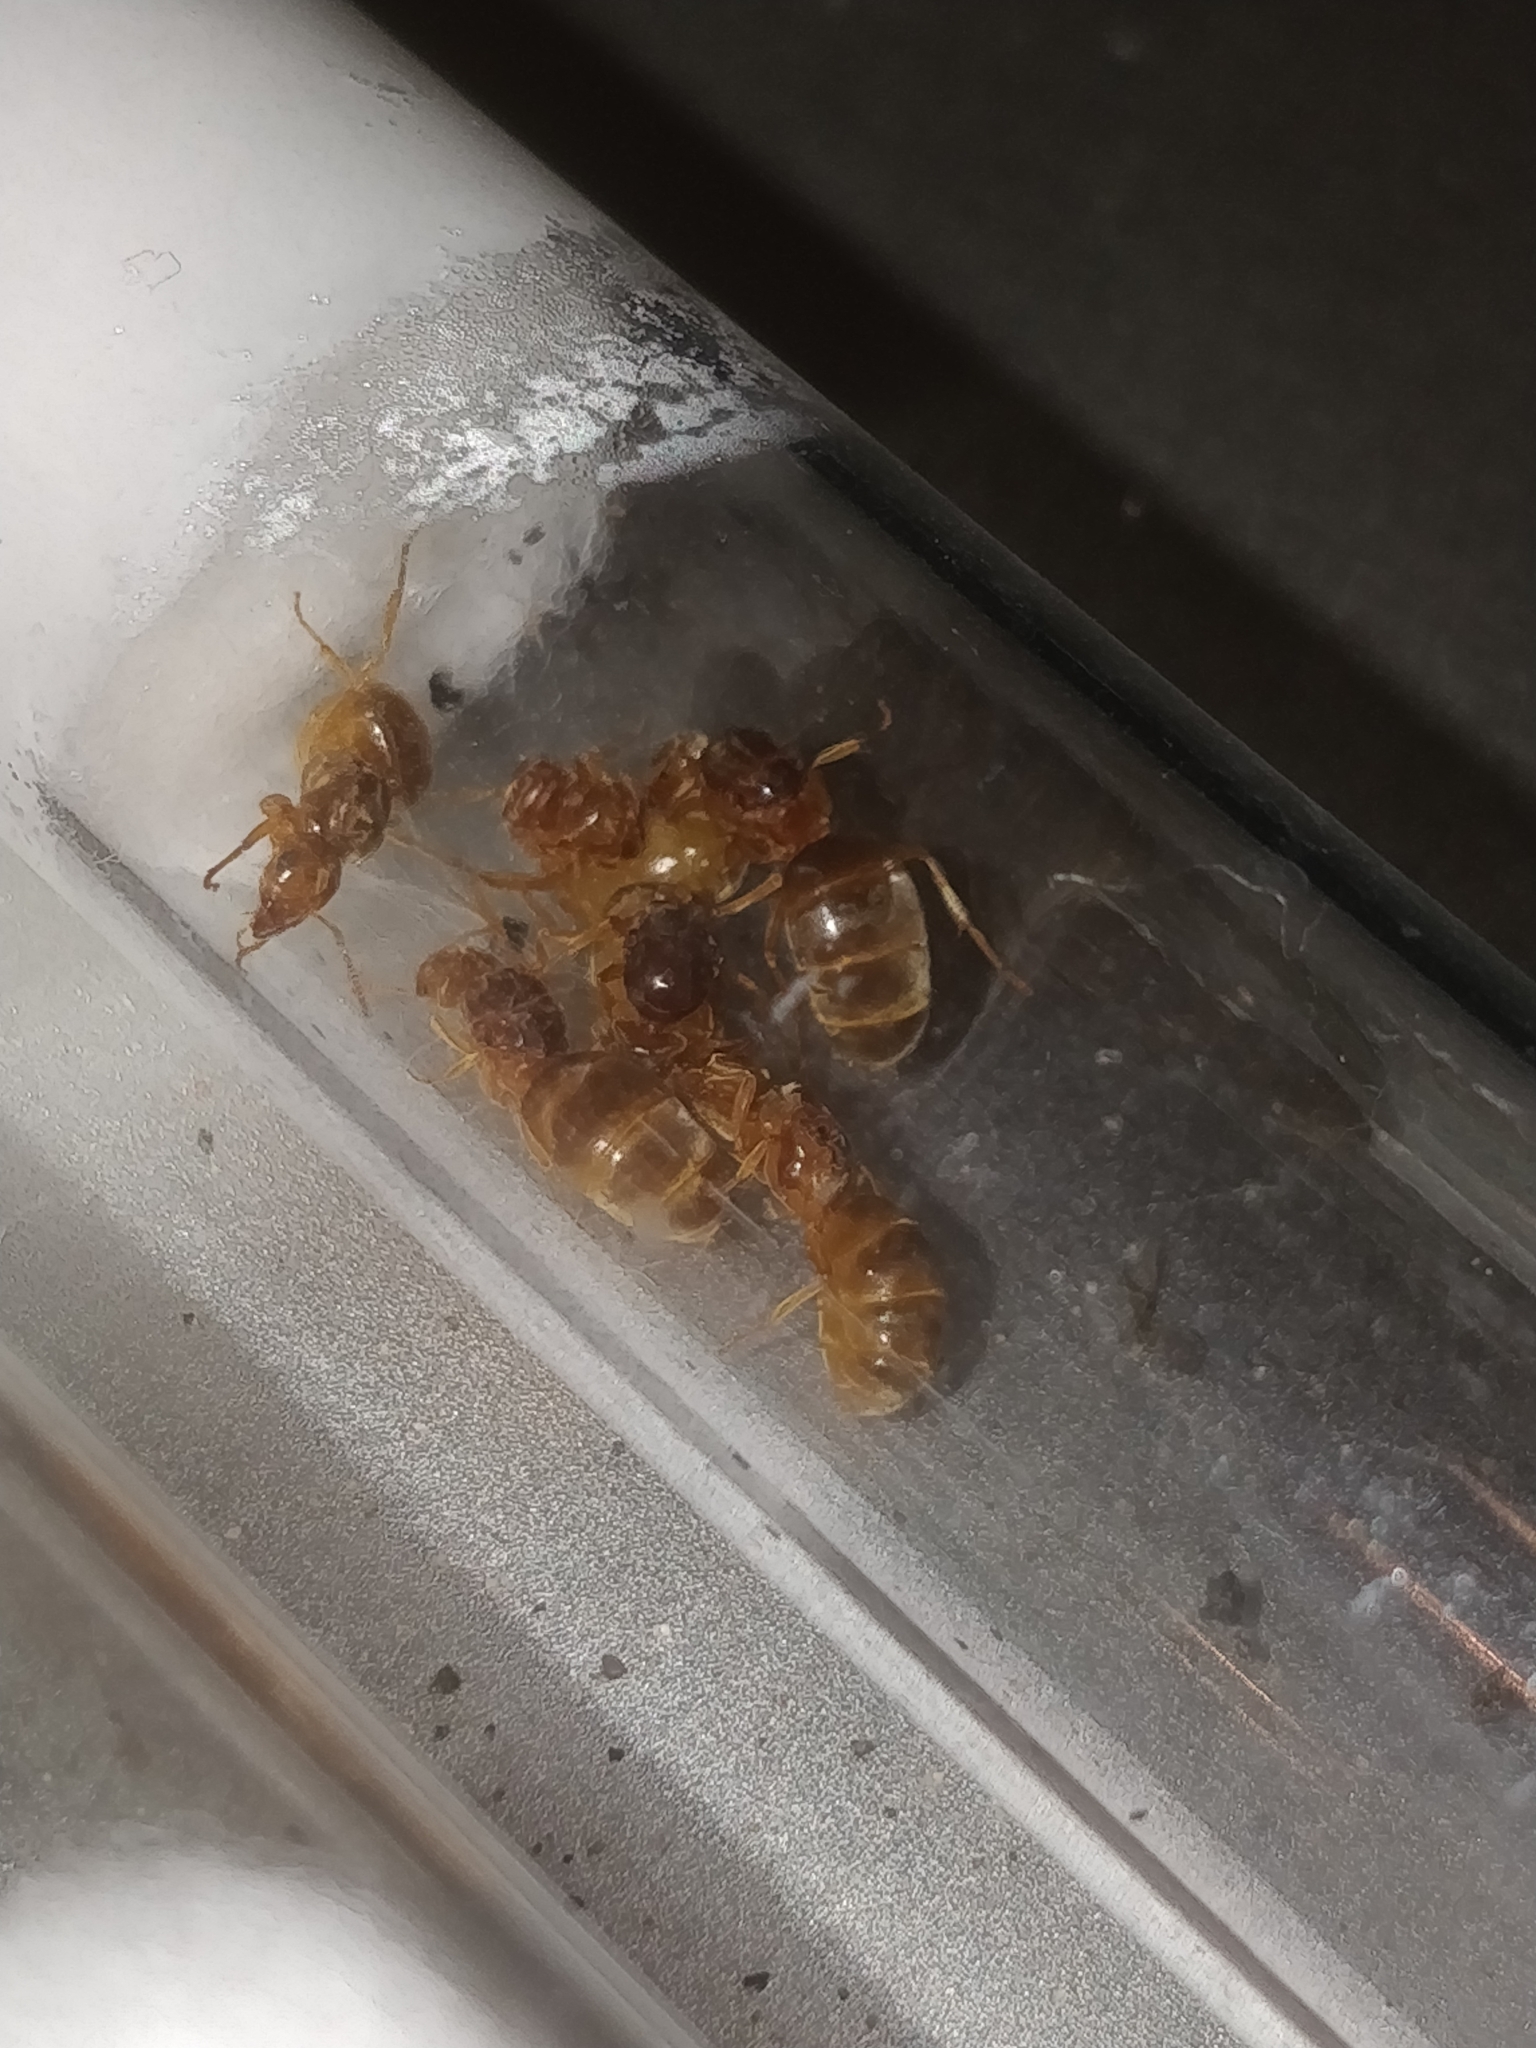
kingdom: Animalia
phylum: Arthropoda
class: Insecta
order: Hymenoptera
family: Formicidae
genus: Lasius
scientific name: Lasius
